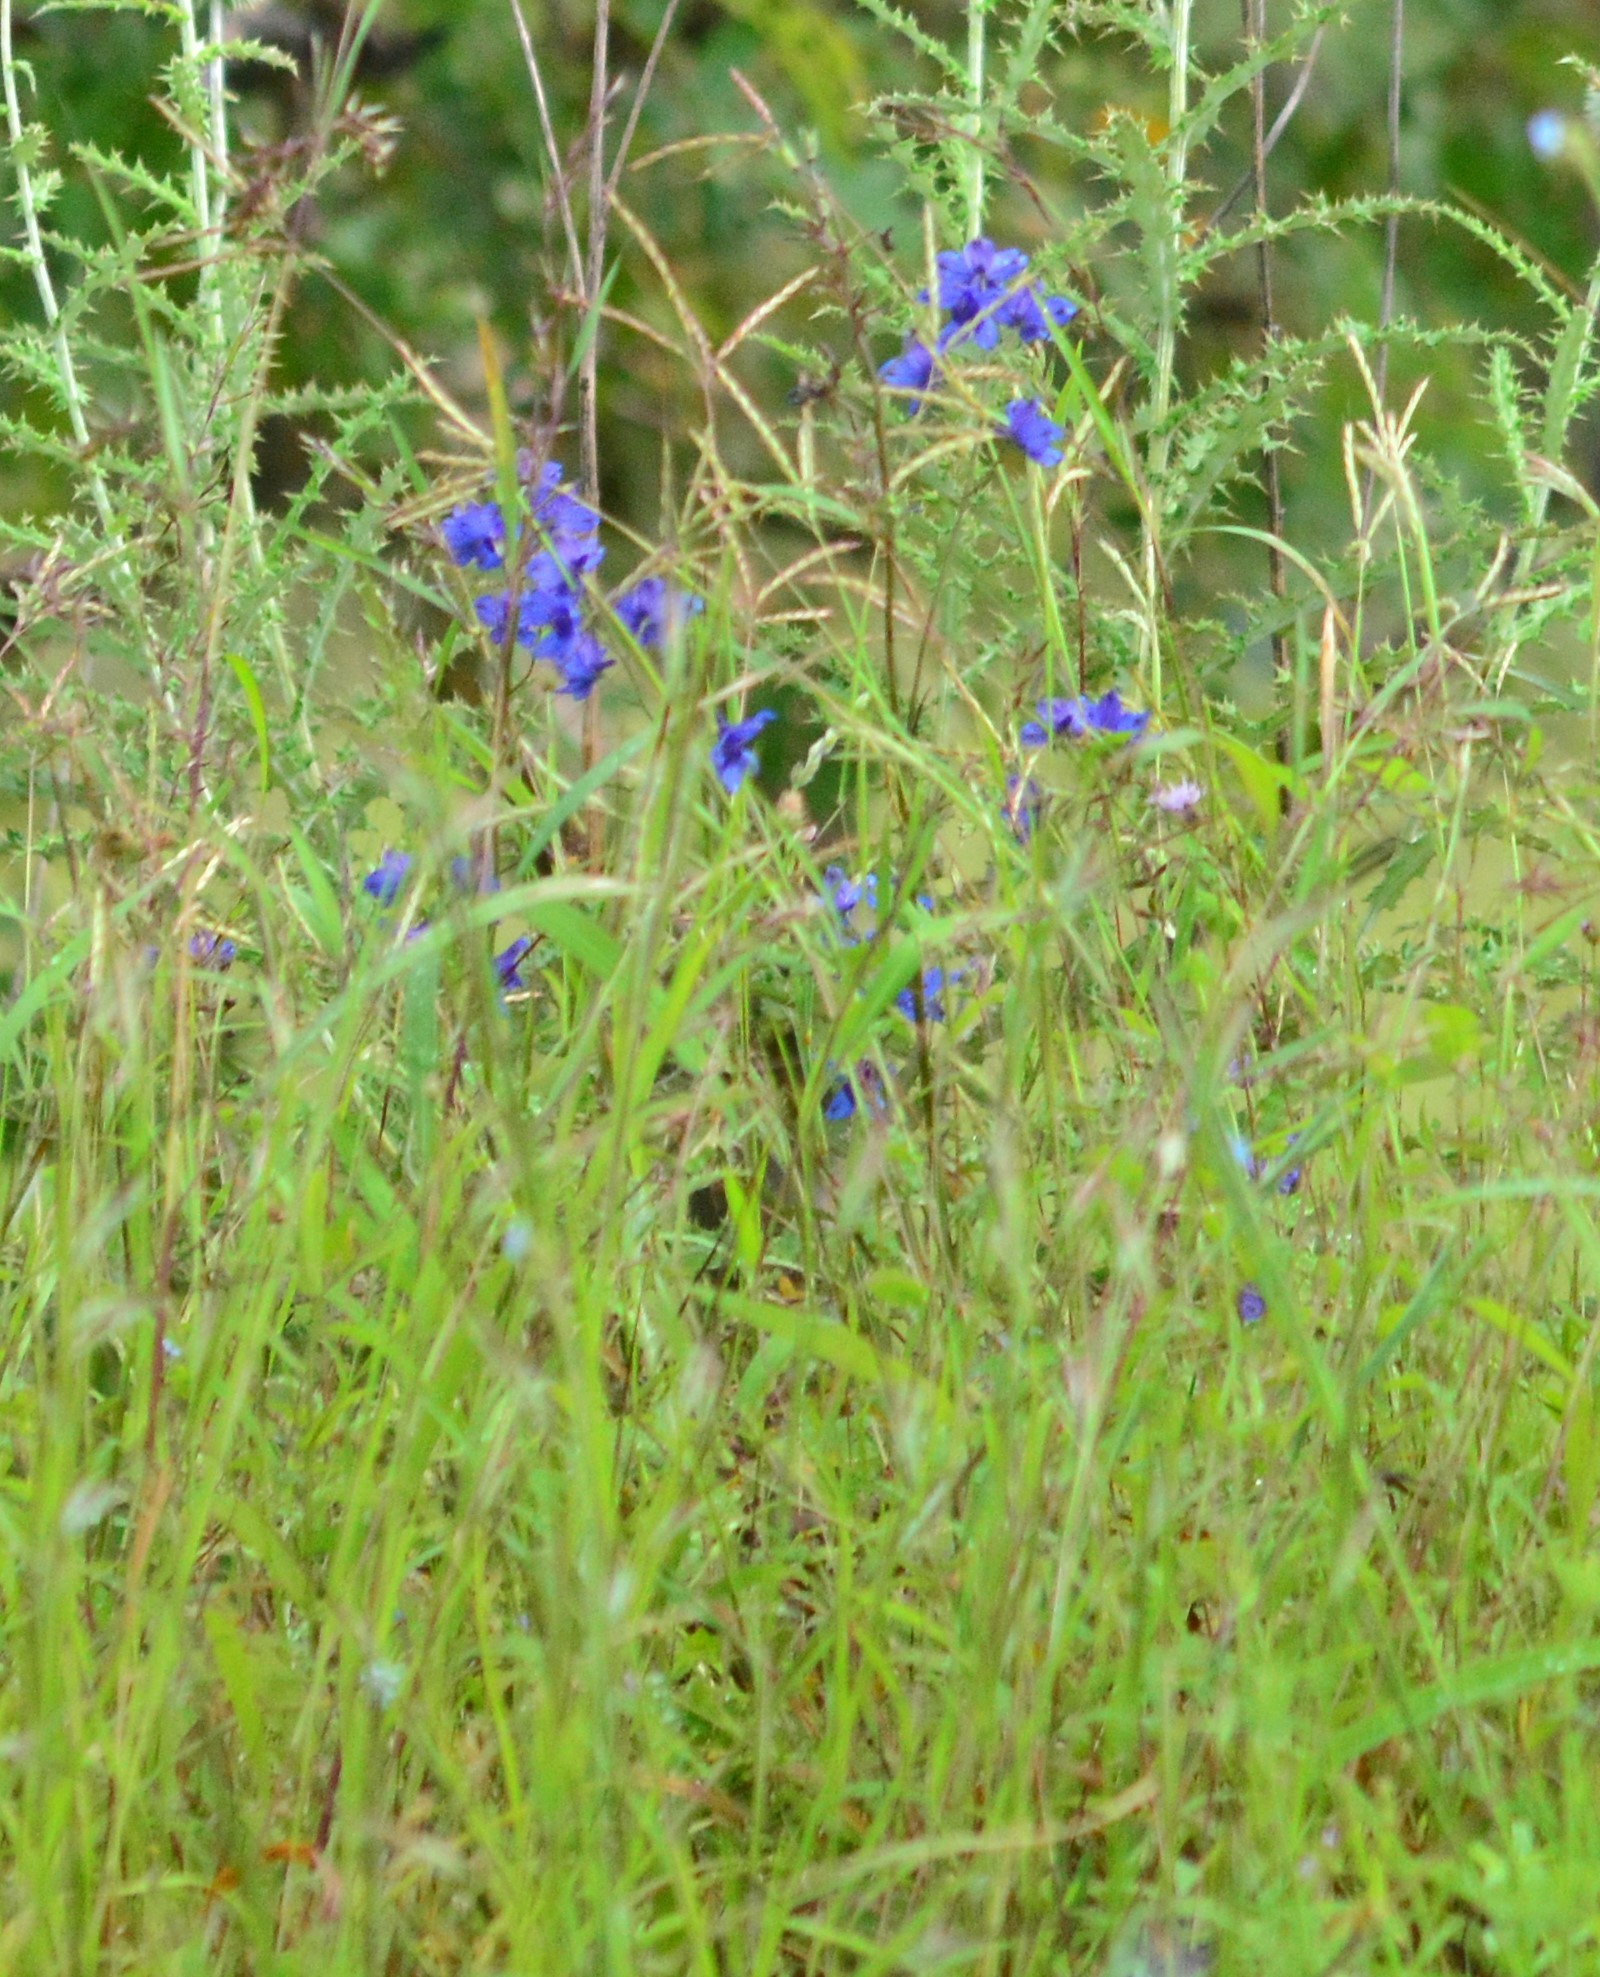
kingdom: Plantae
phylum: Tracheophyta
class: Magnoliopsida
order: Ranunculales
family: Ranunculaceae
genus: Delphinium
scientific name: Delphinium malabaricum
